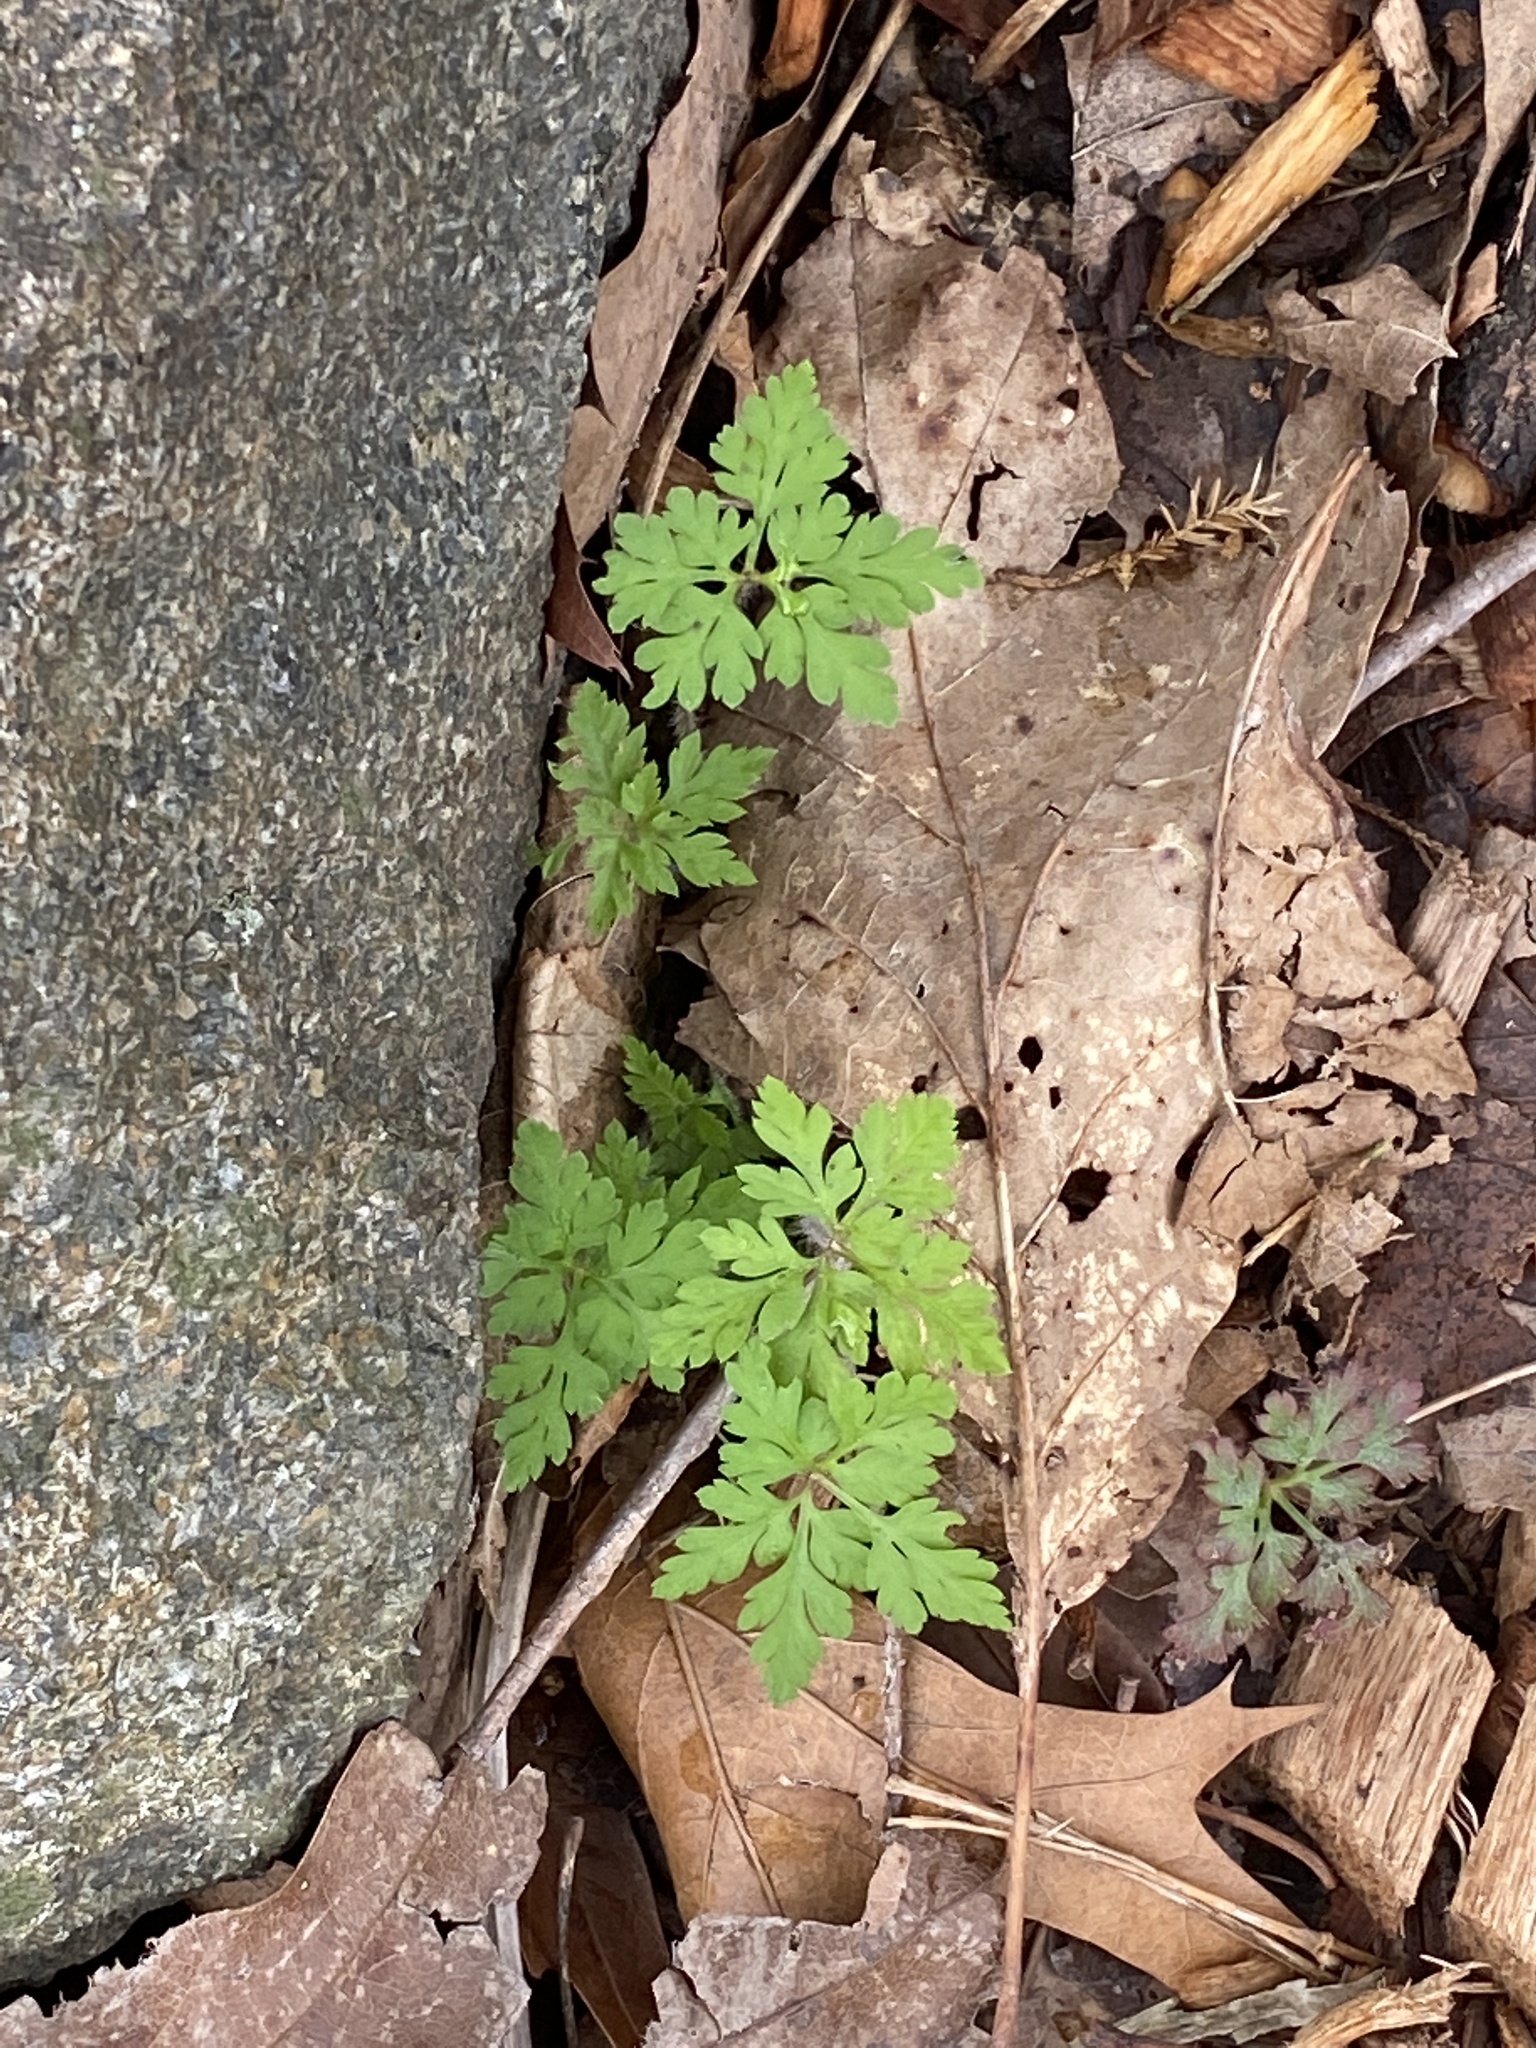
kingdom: Plantae
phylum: Tracheophyta
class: Magnoliopsida
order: Geraniales
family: Geraniaceae
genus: Geranium
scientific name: Geranium robertianum
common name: Herb-robert
